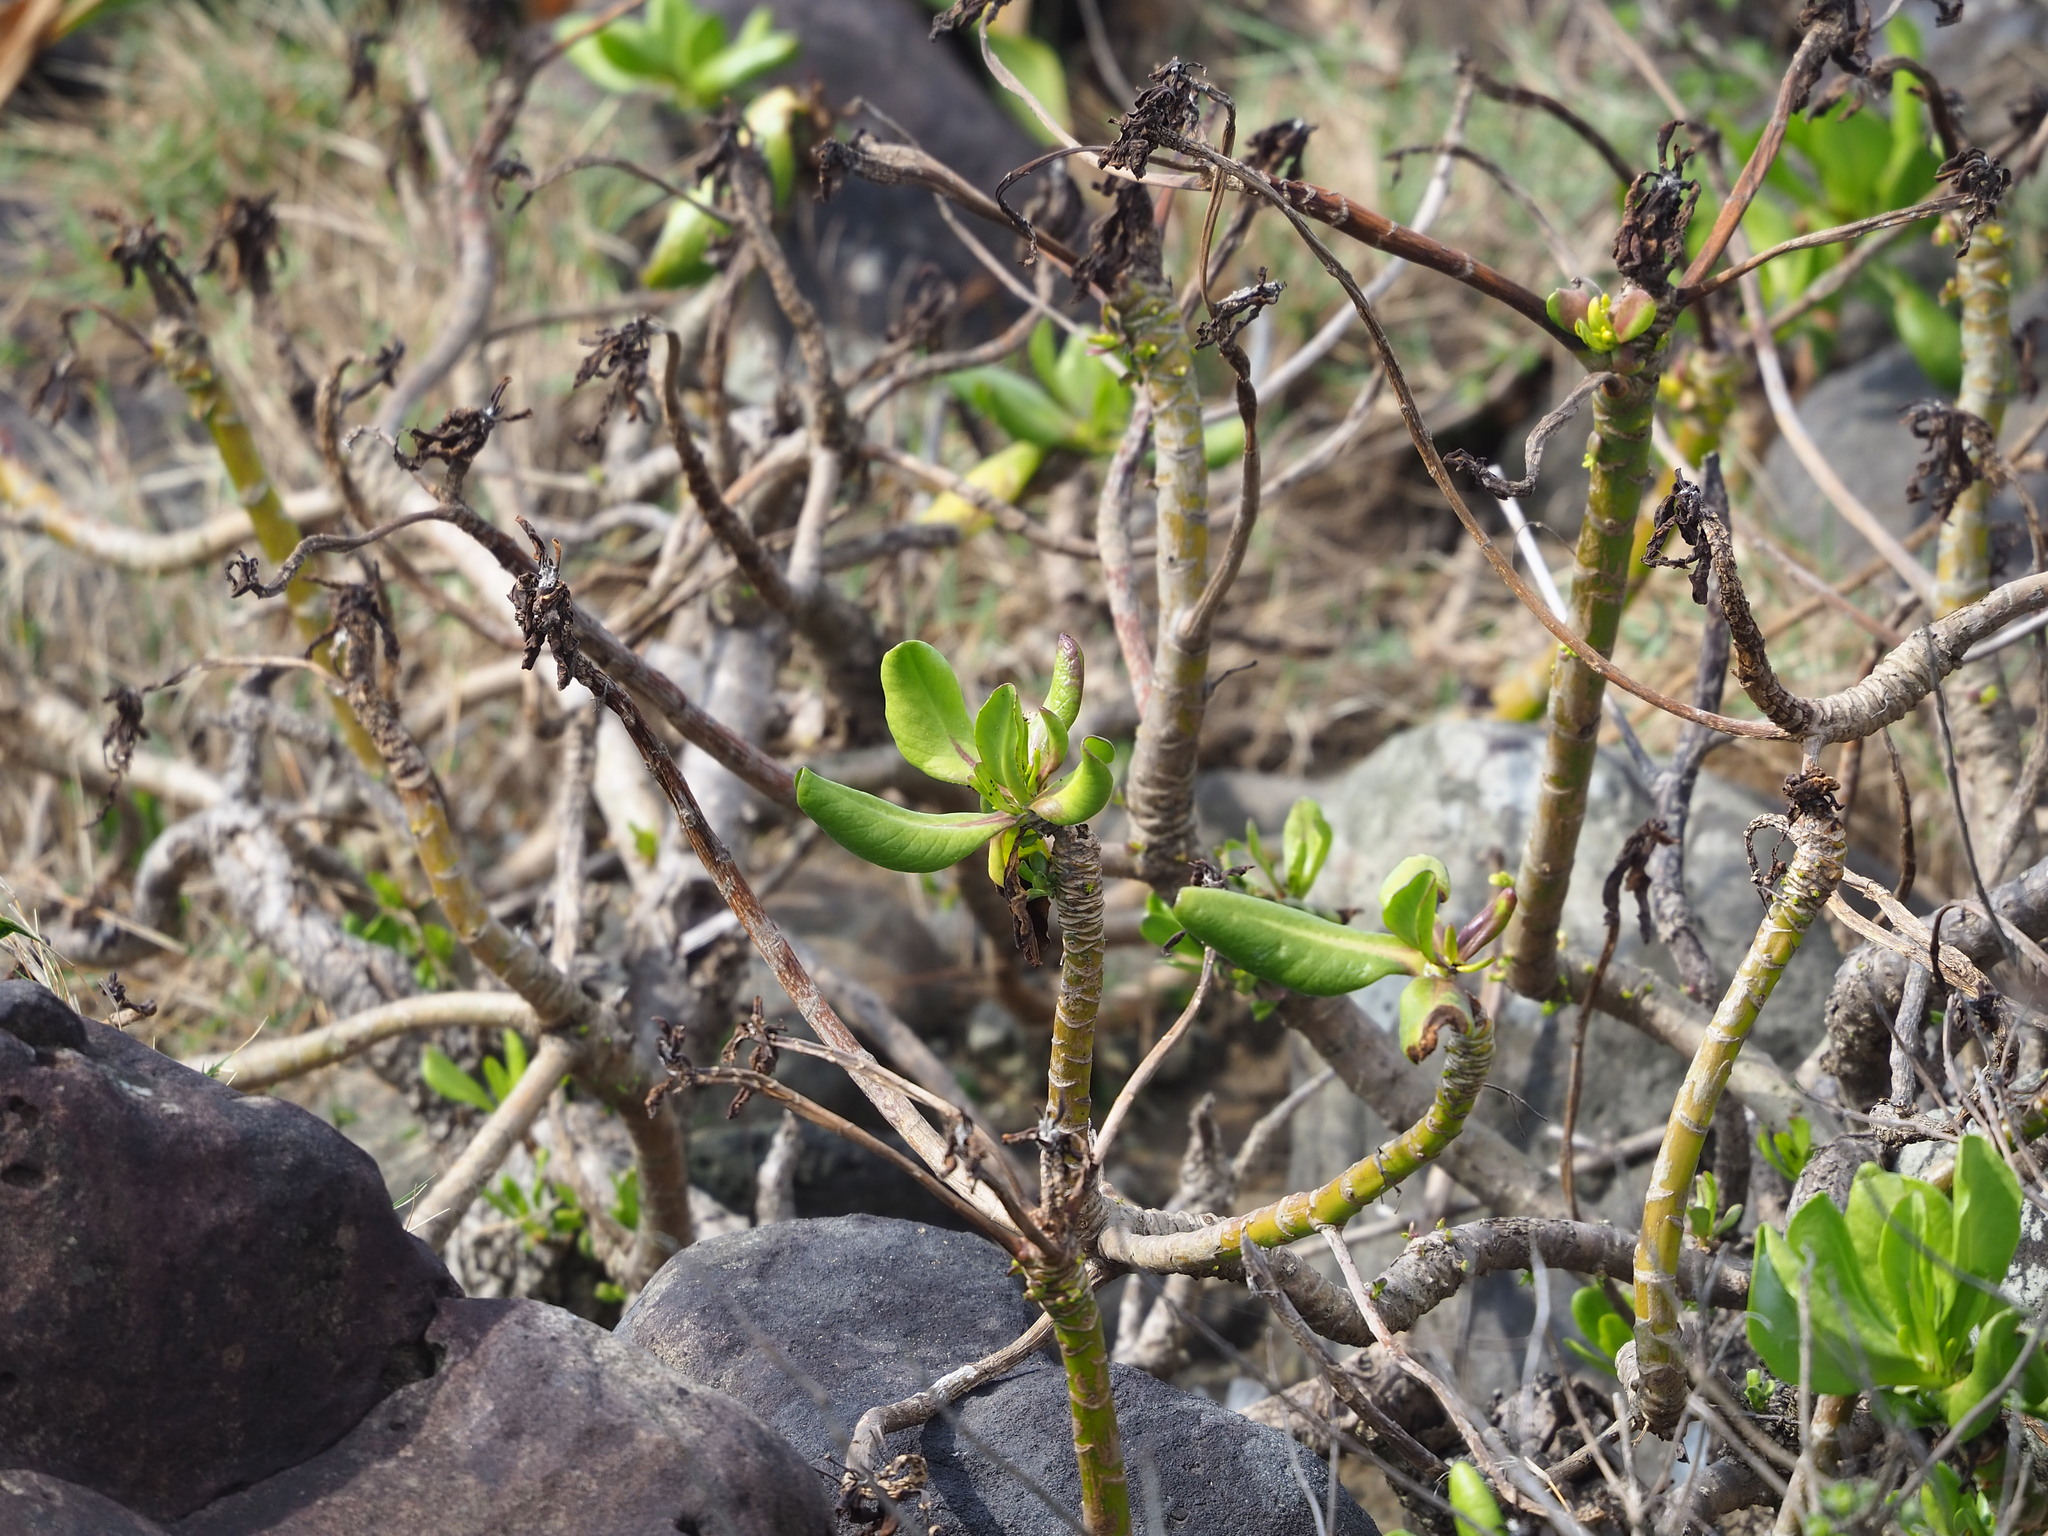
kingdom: Plantae
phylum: Tracheophyta
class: Magnoliopsida
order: Asterales
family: Goodeniaceae
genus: Scaevola
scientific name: Scaevola taccada
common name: Sea lettucetree
